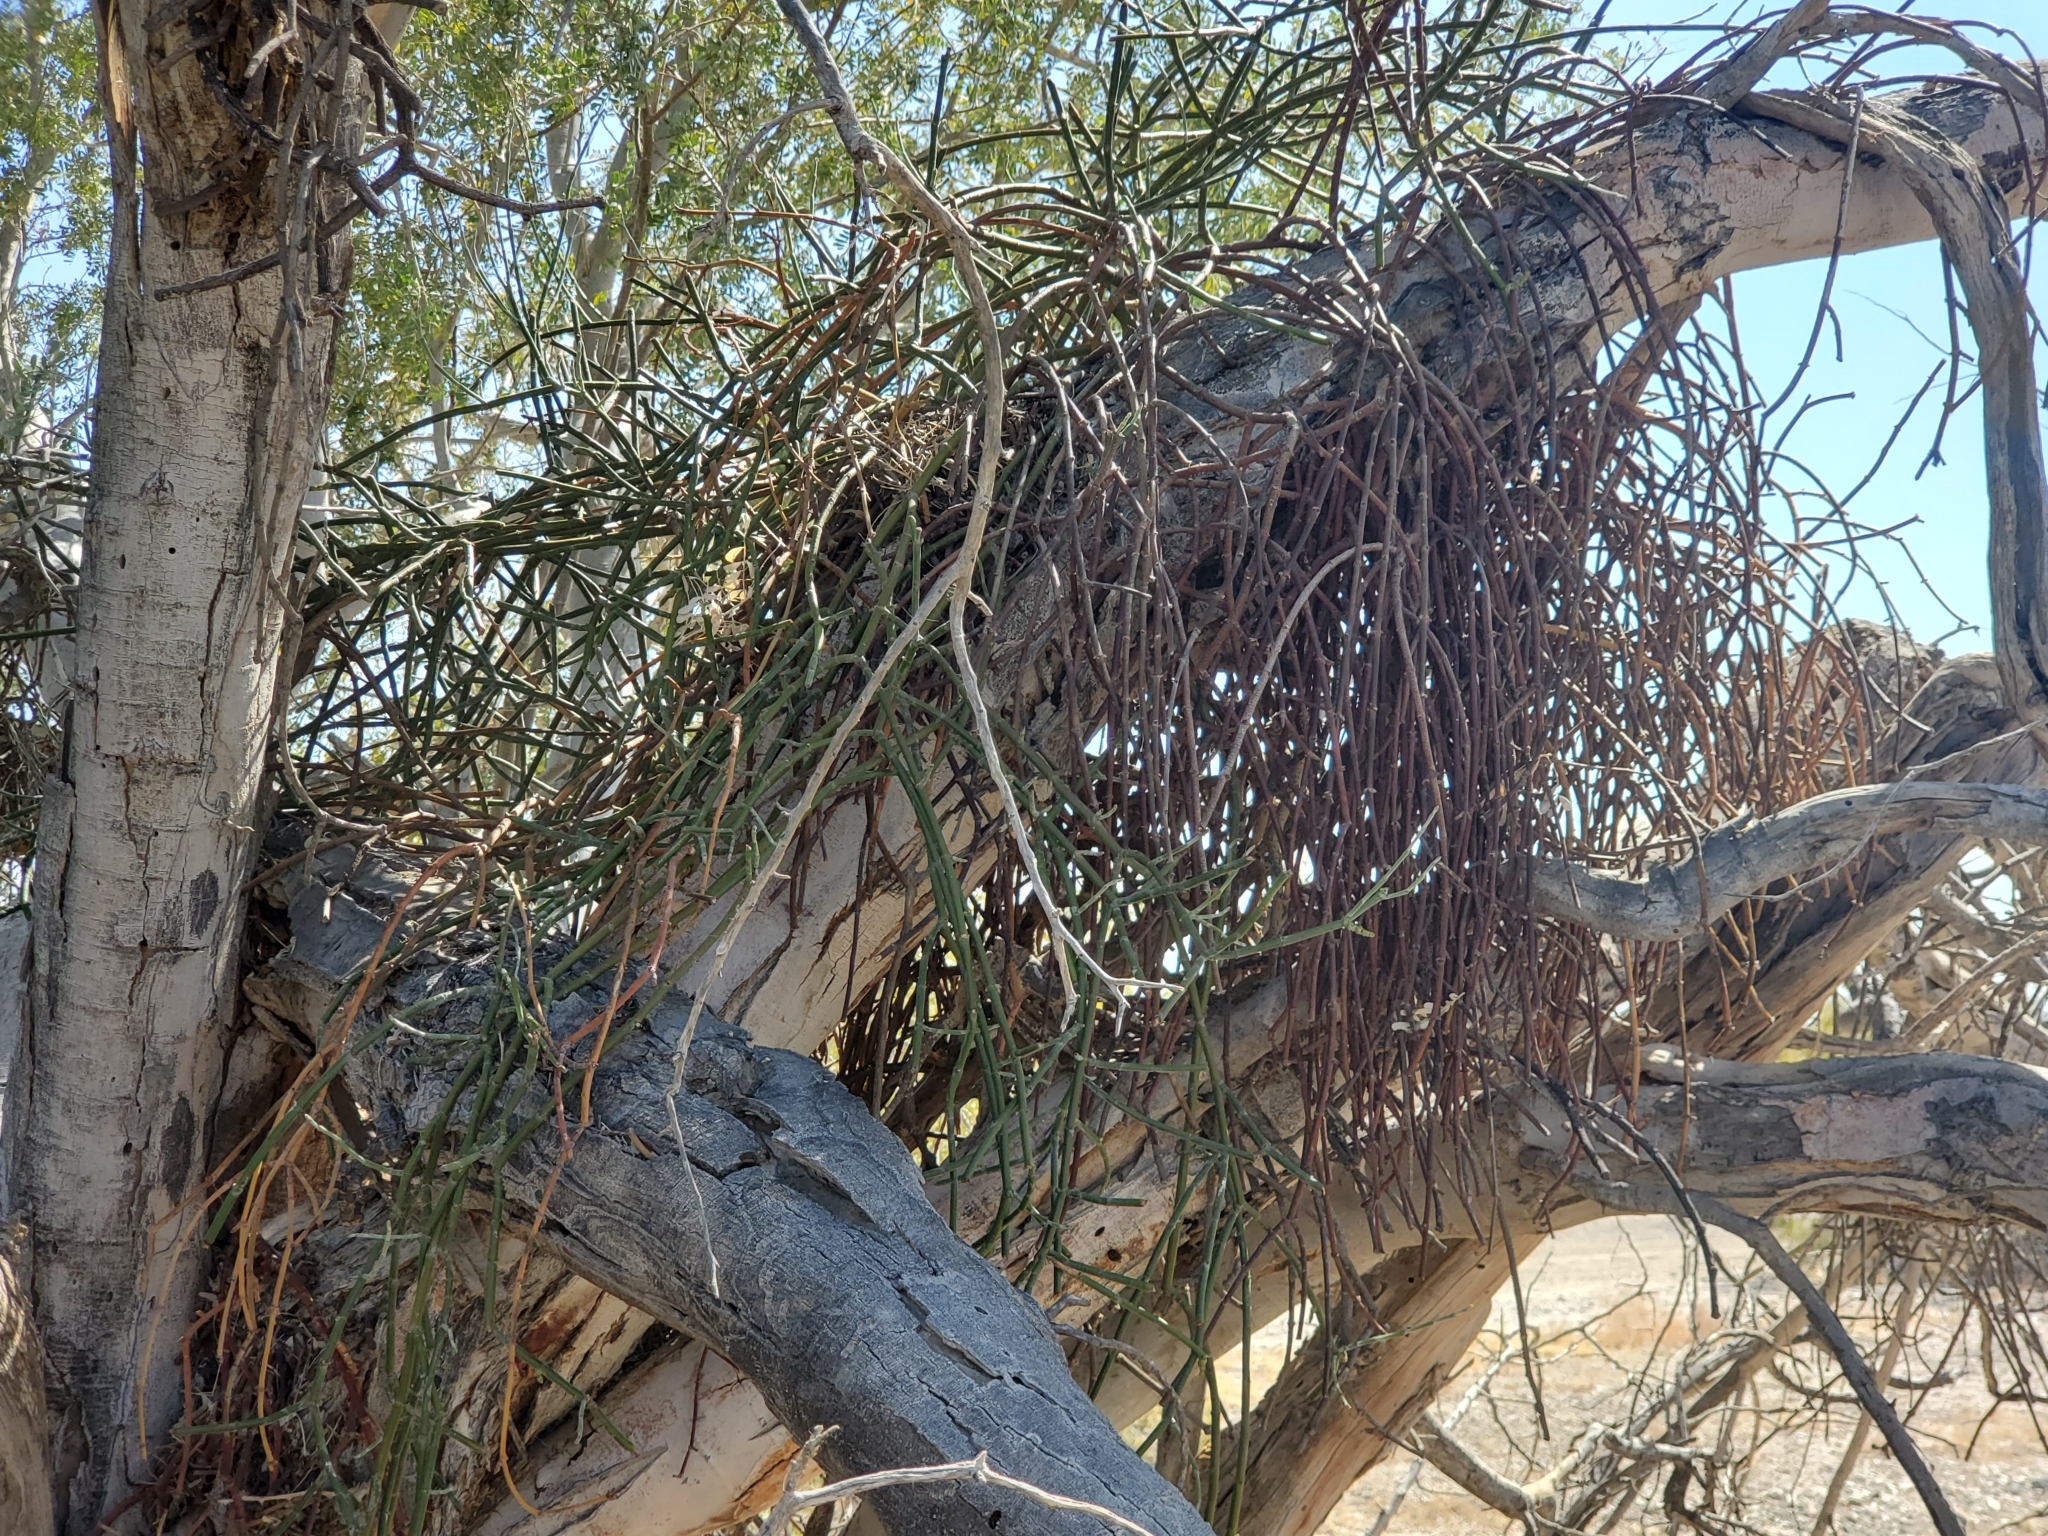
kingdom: Plantae
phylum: Tracheophyta
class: Magnoliopsida
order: Fabales
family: Fabaceae
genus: Olneya
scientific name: Olneya tesota
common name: Desert ironwood
